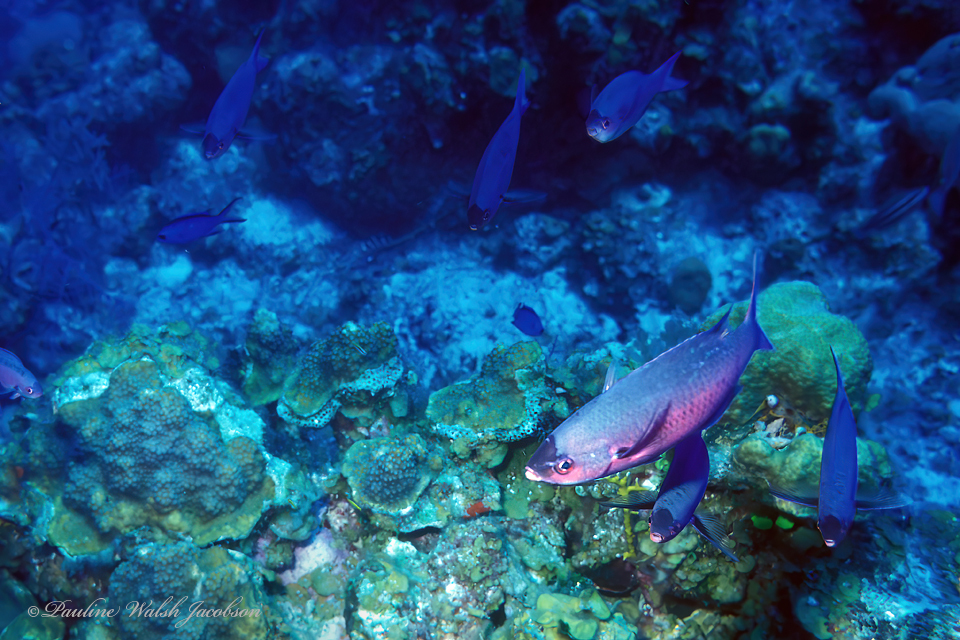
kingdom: Animalia
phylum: Chordata
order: Perciformes
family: Labridae
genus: Bodianus
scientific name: Bodianus
